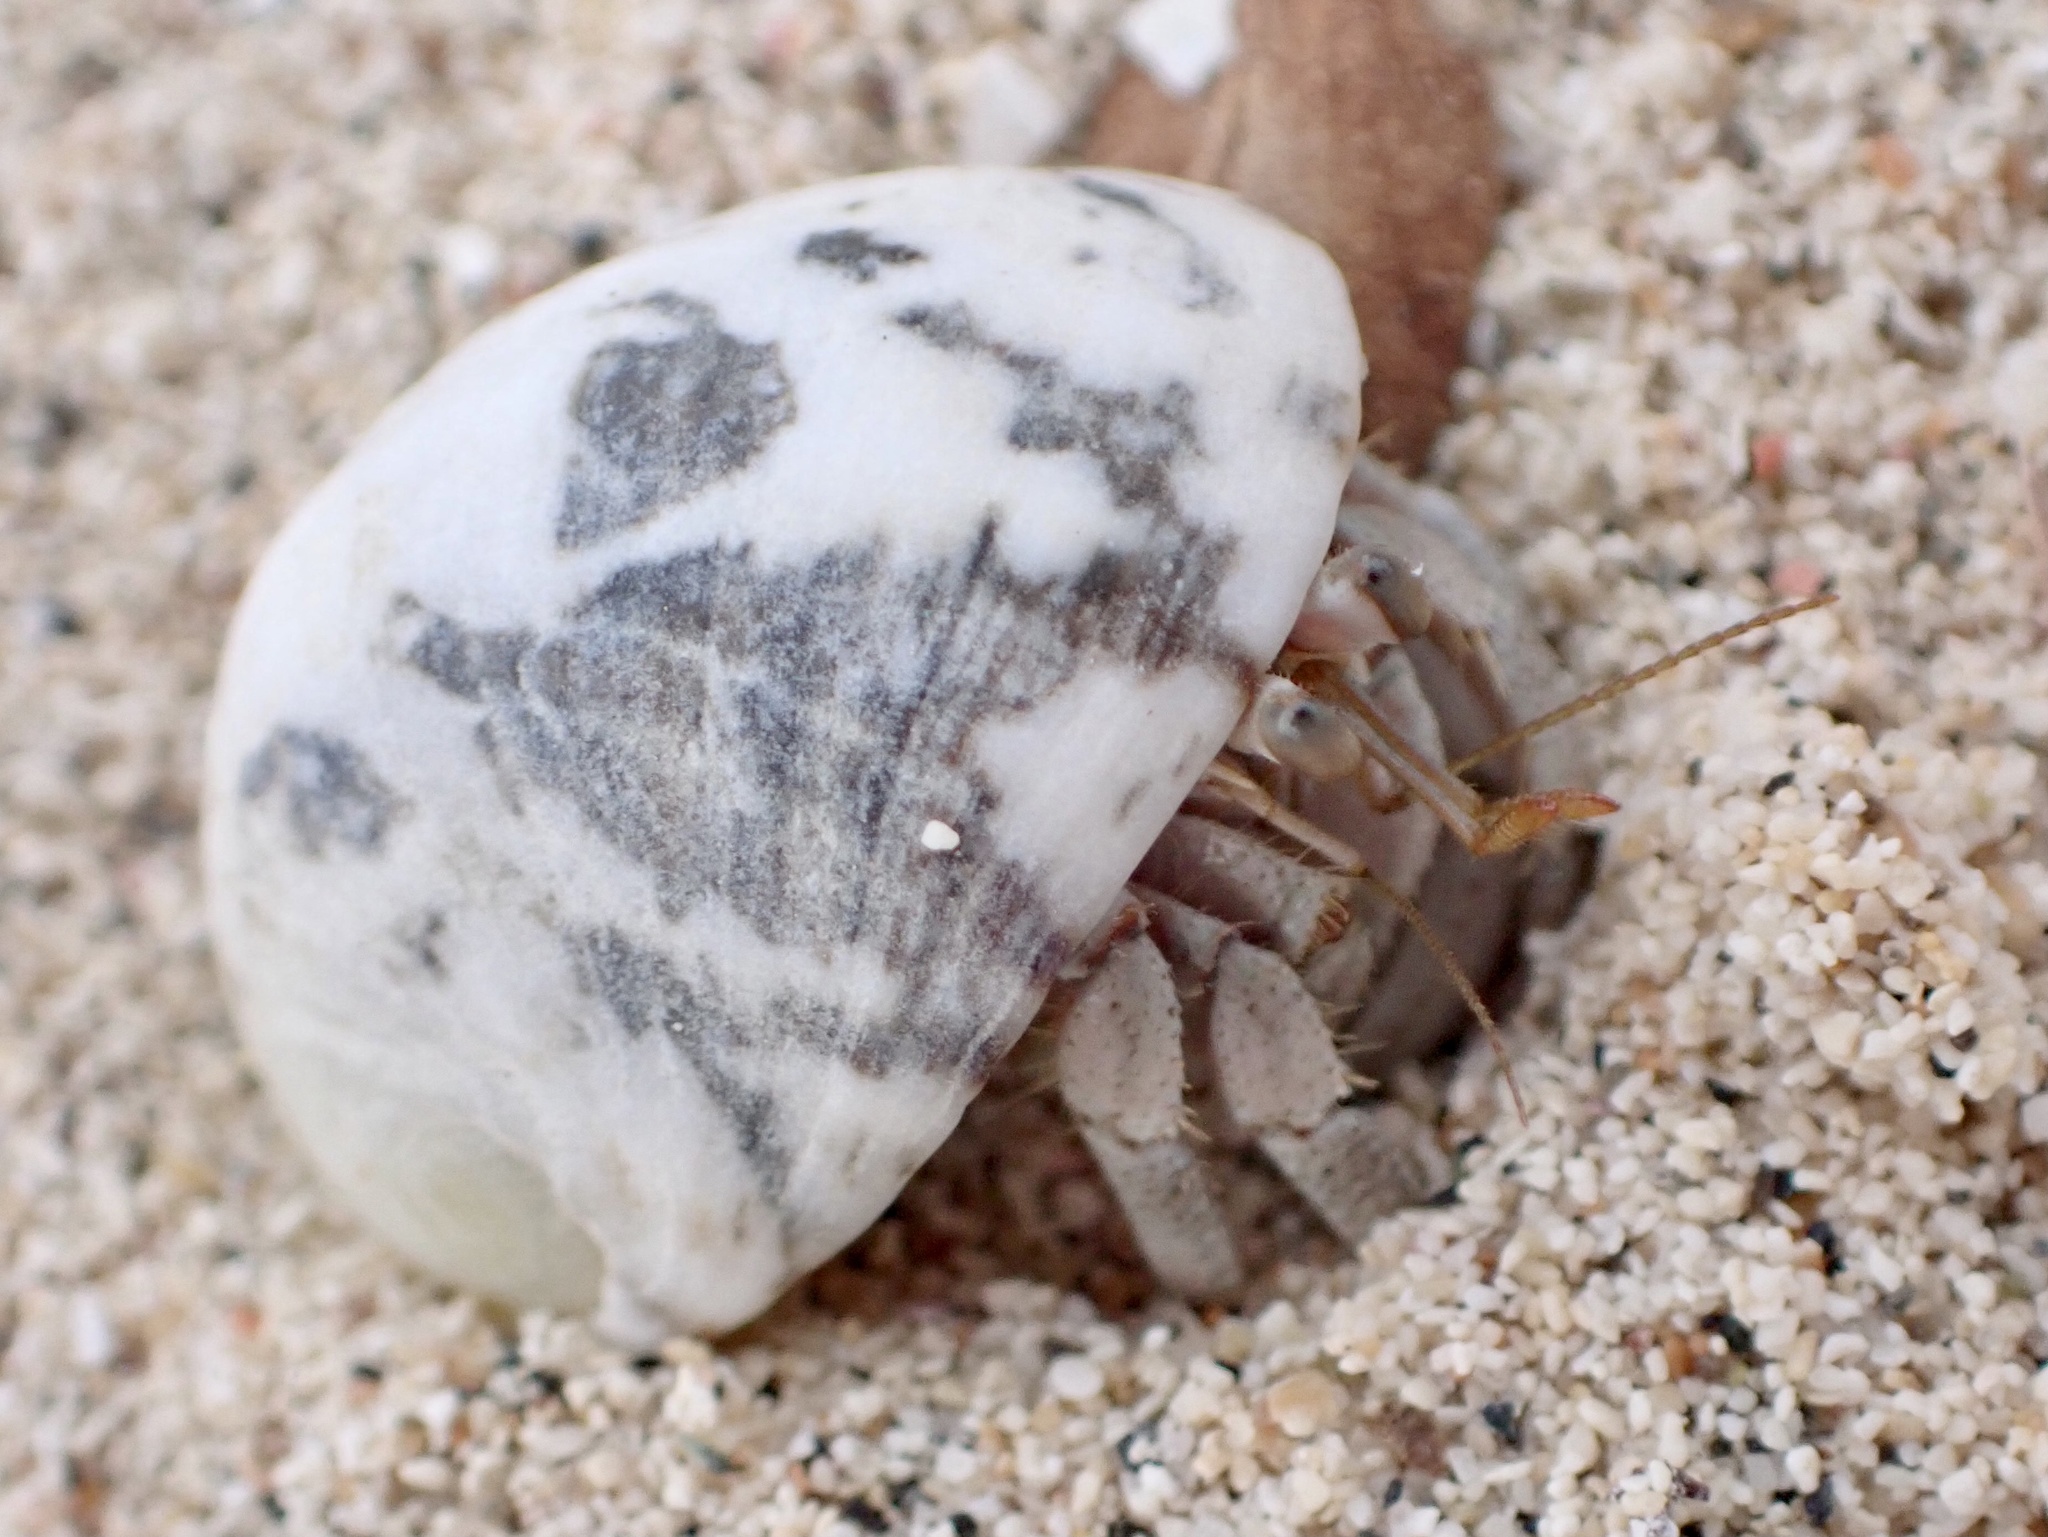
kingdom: Animalia
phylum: Arthropoda
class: Malacostraca
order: Decapoda
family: Coenobitidae
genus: Coenobita
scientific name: Coenobita scaevola
